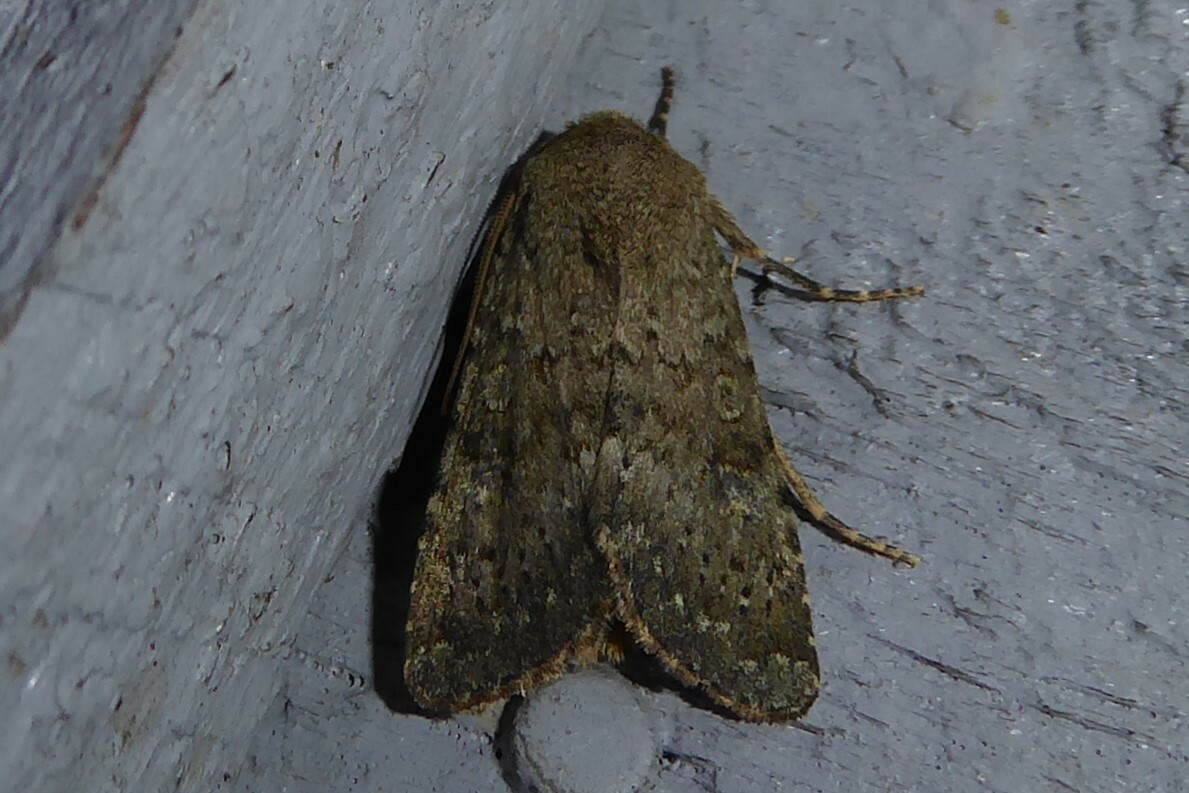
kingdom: Animalia
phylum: Arthropoda
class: Insecta
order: Lepidoptera
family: Noctuidae
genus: Ichneutica
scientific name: Ichneutica moderata
